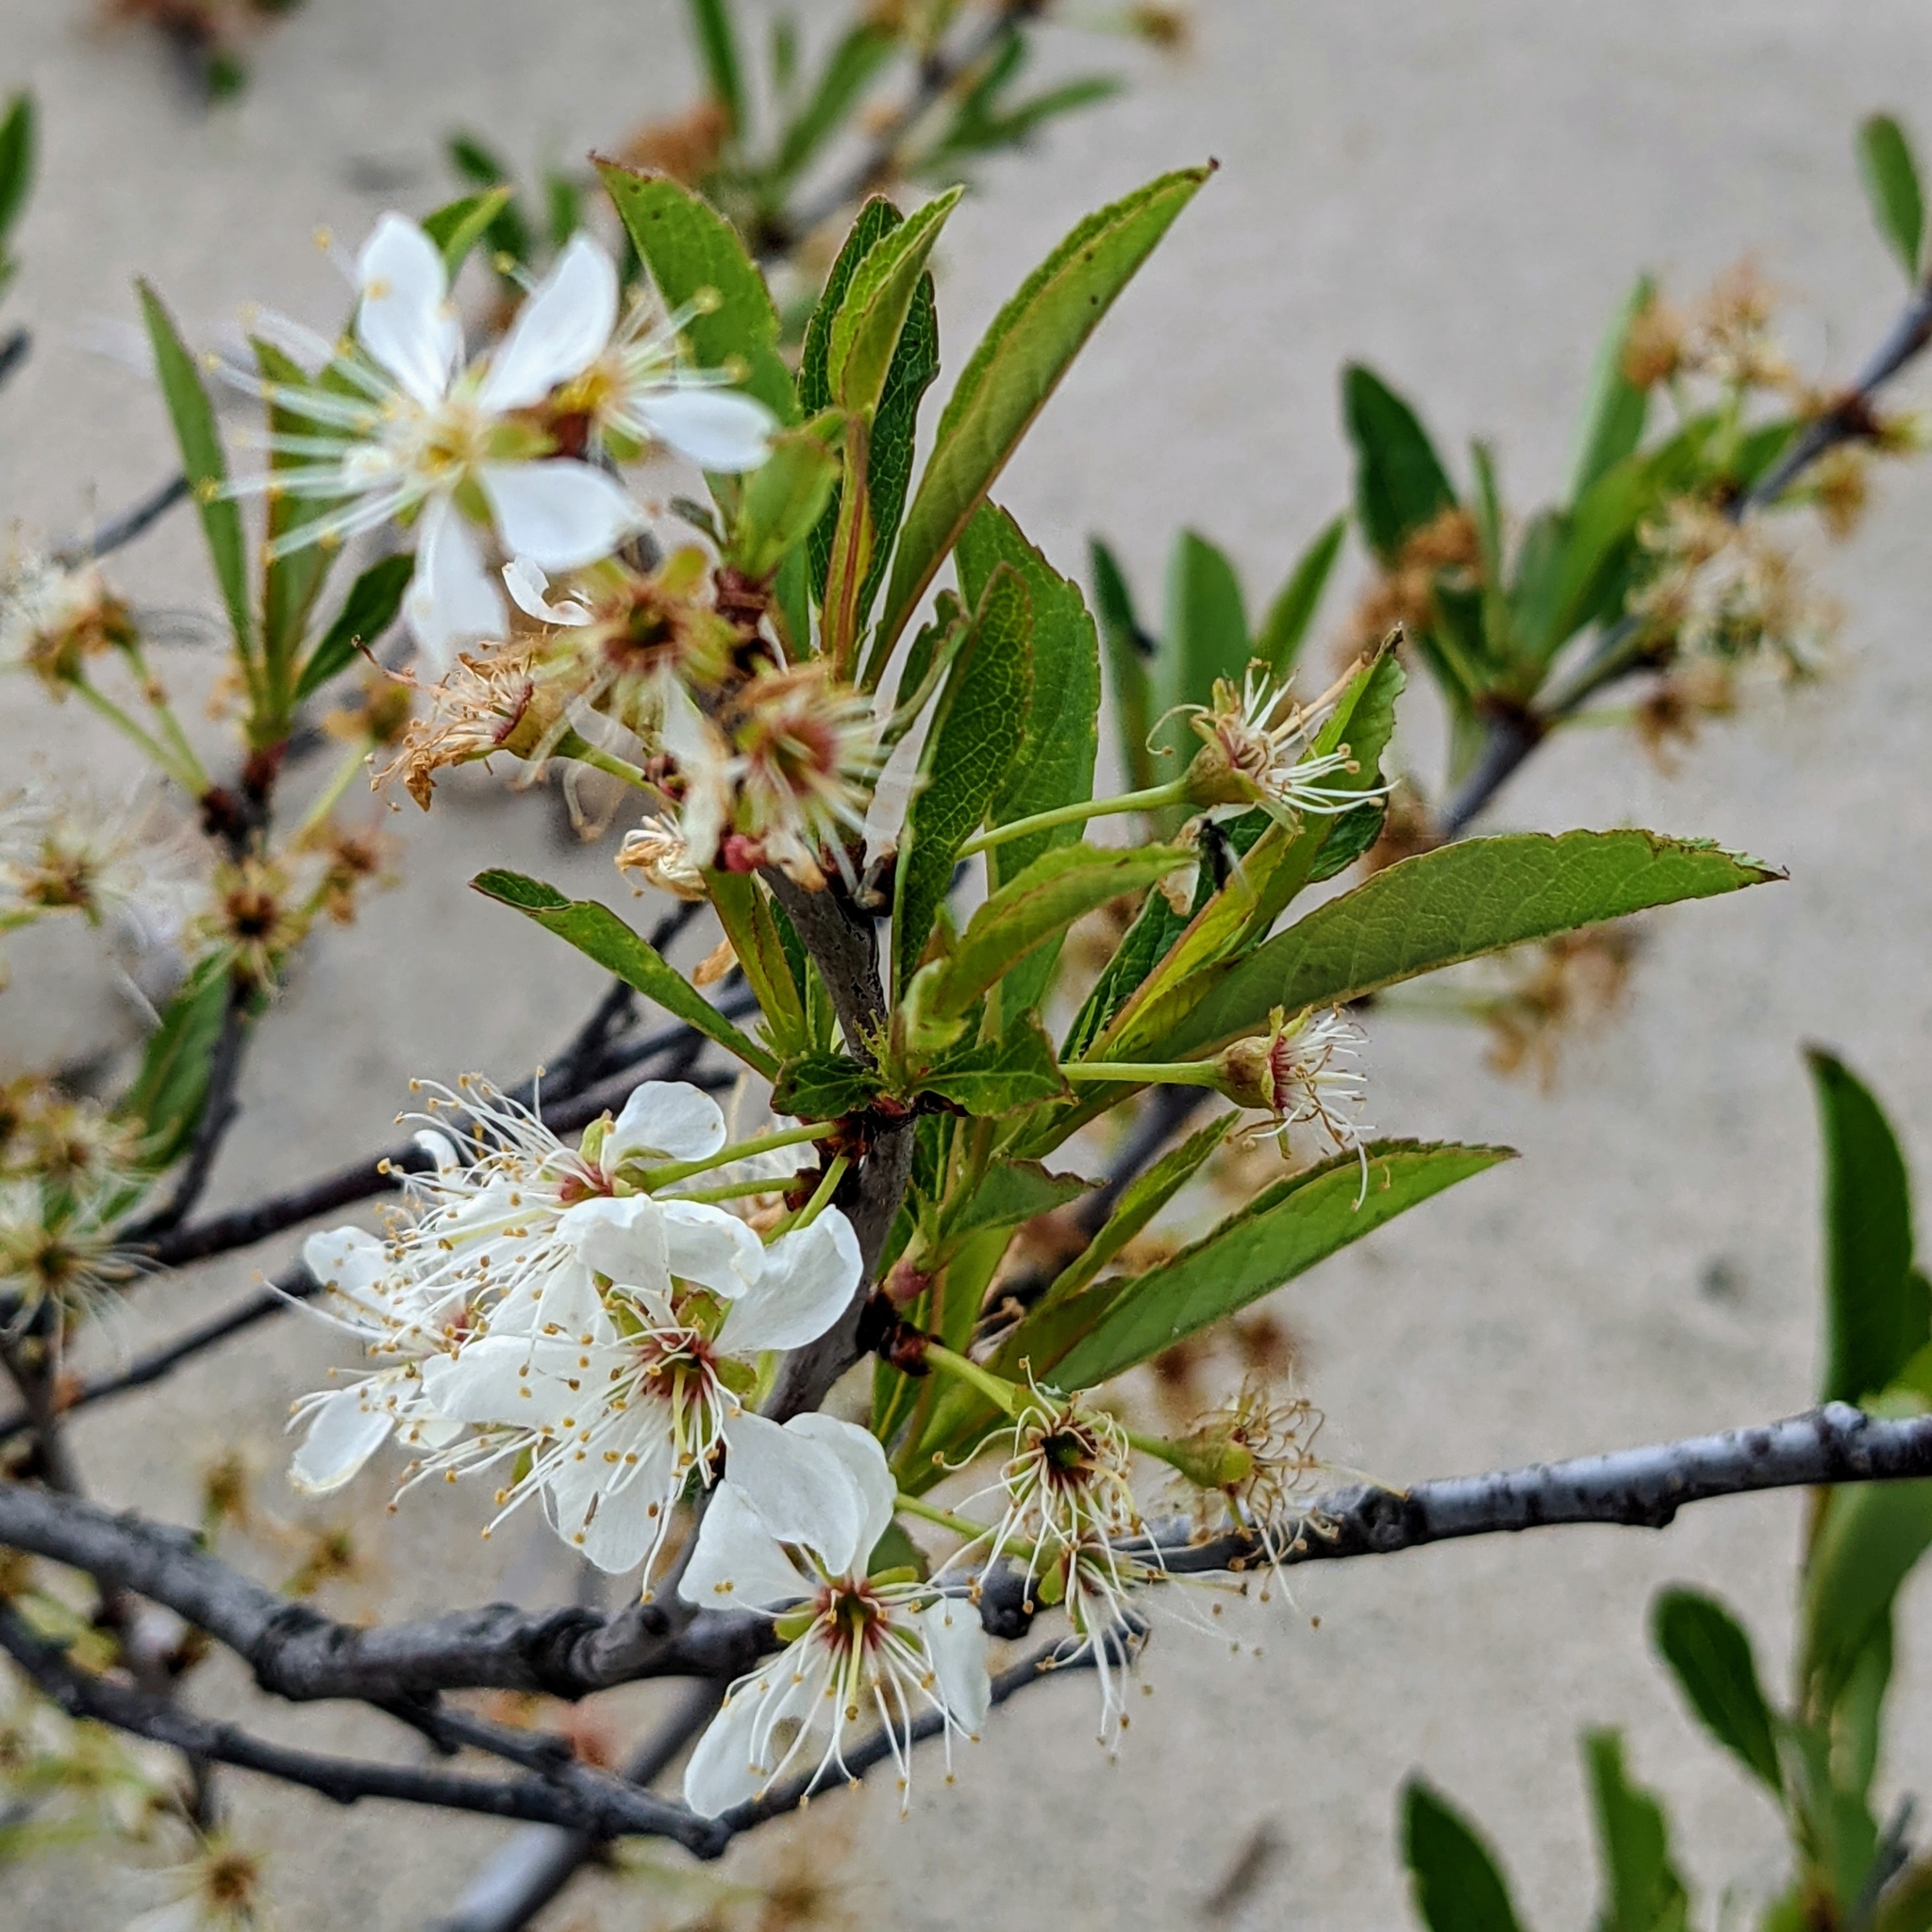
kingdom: Plantae
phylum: Tracheophyta
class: Magnoliopsida
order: Rosales
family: Rosaceae
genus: Prunus
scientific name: Prunus pumila
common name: Dwarf cherry
